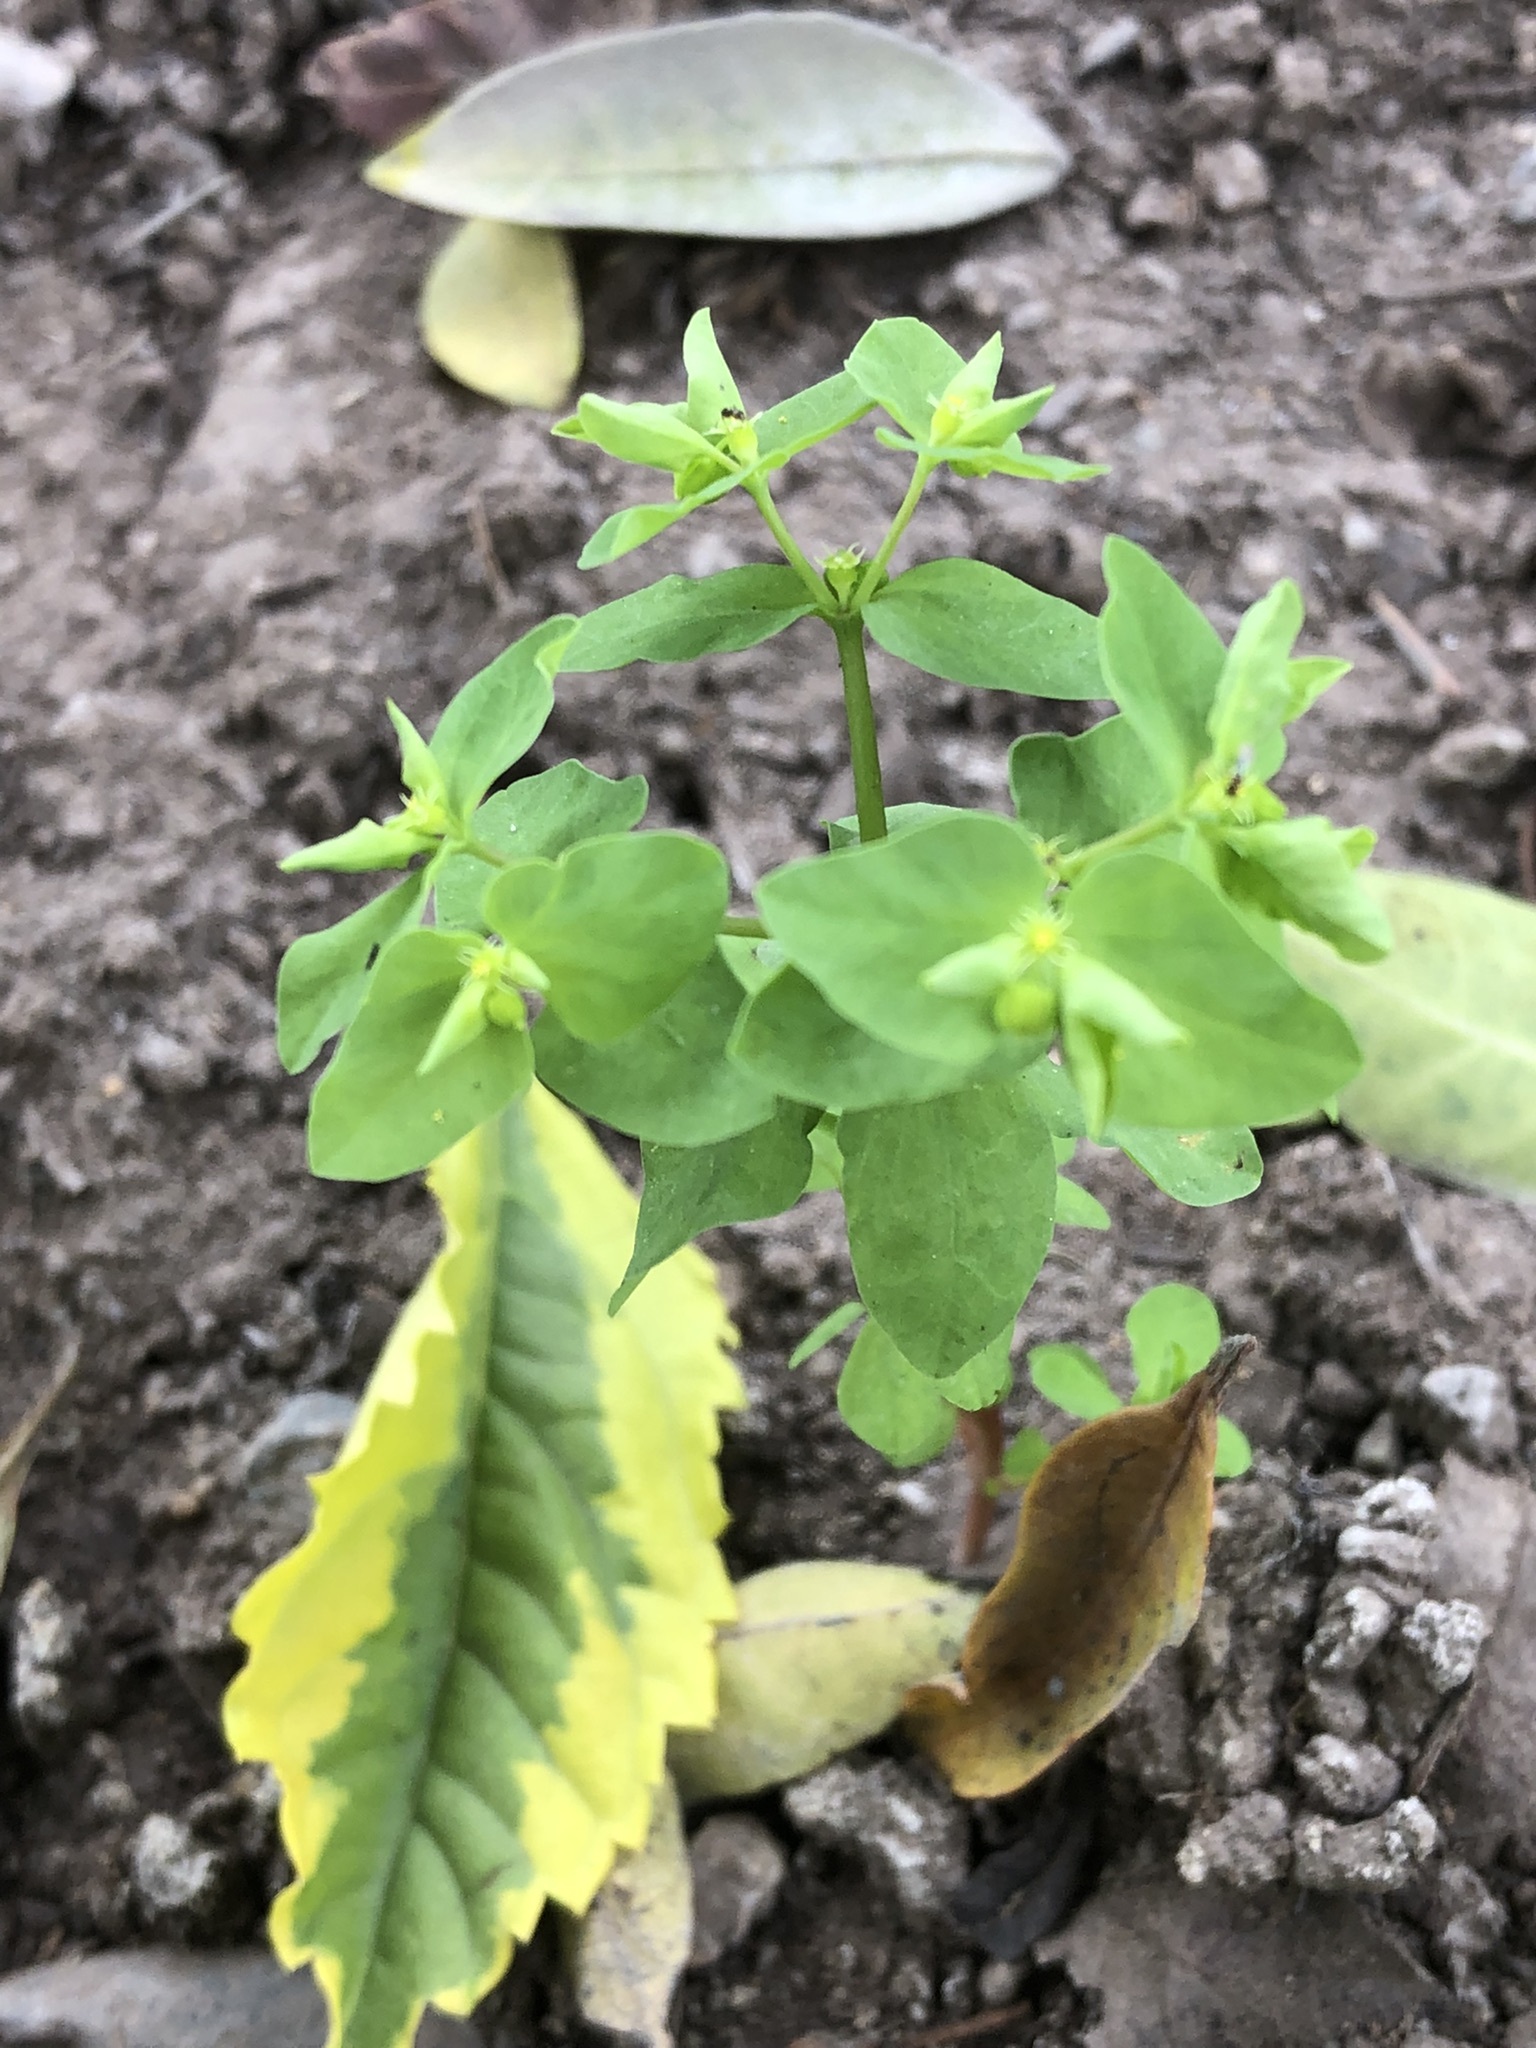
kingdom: Plantae
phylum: Tracheophyta
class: Magnoliopsida
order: Malpighiales
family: Euphorbiaceae
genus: Euphorbia
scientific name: Euphorbia peplus
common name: Petty spurge
